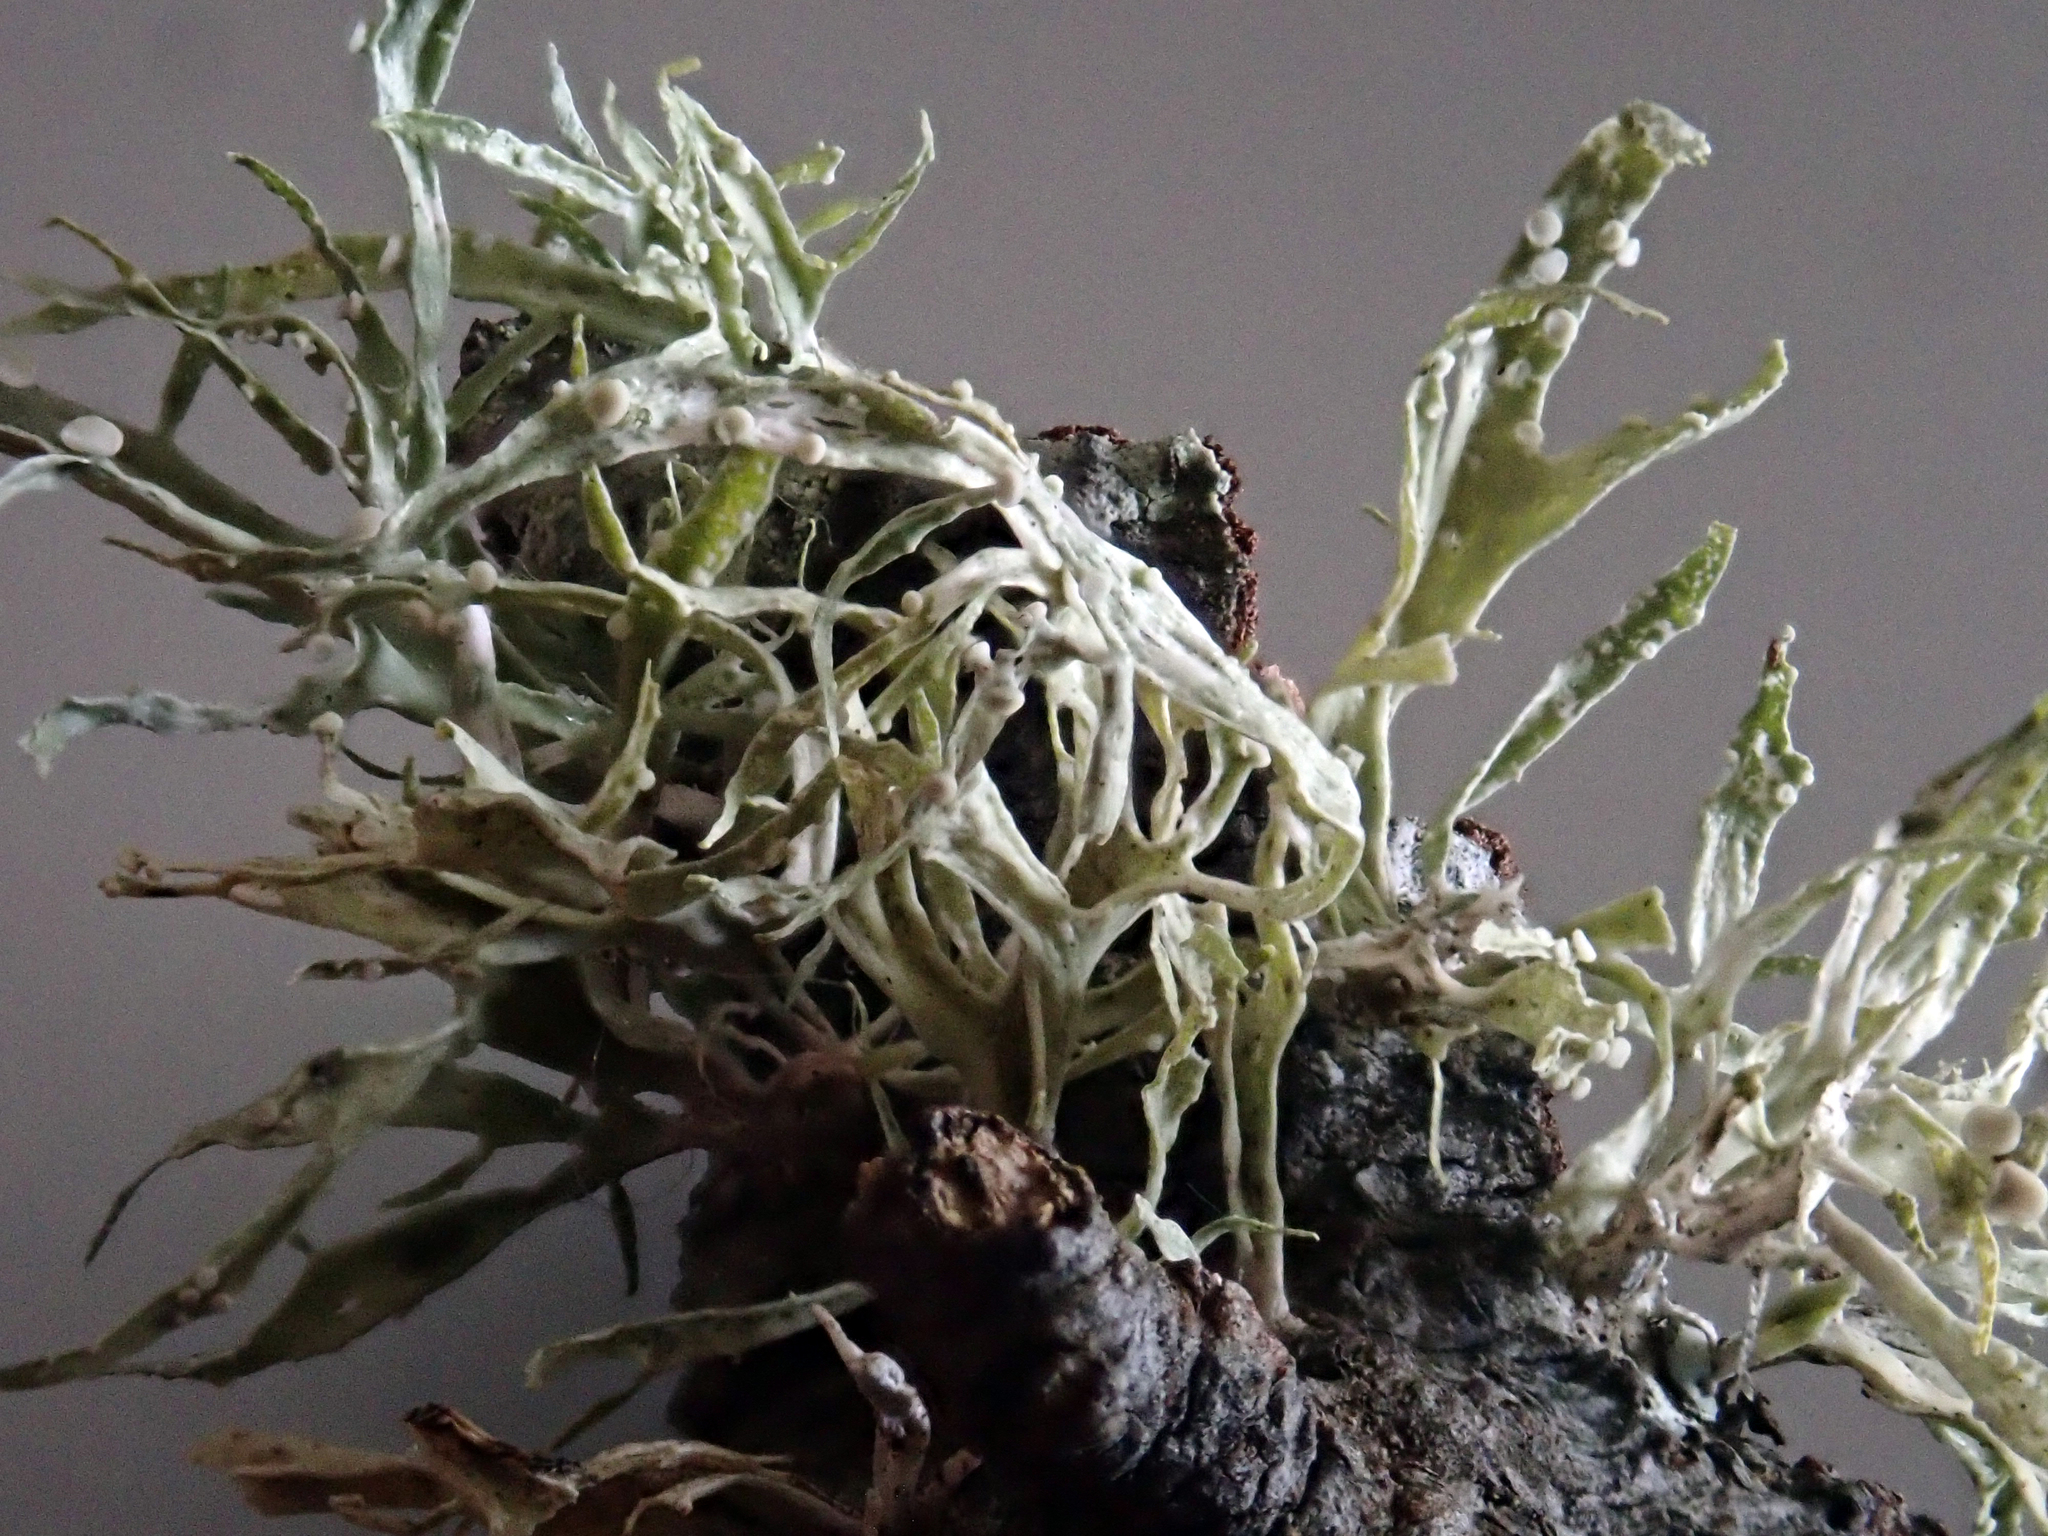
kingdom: Fungi
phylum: Ascomycota
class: Lecanoromycetes
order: Lecanorales
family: Ramalinaceae
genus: Ramalina
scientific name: Ramalina celastri
